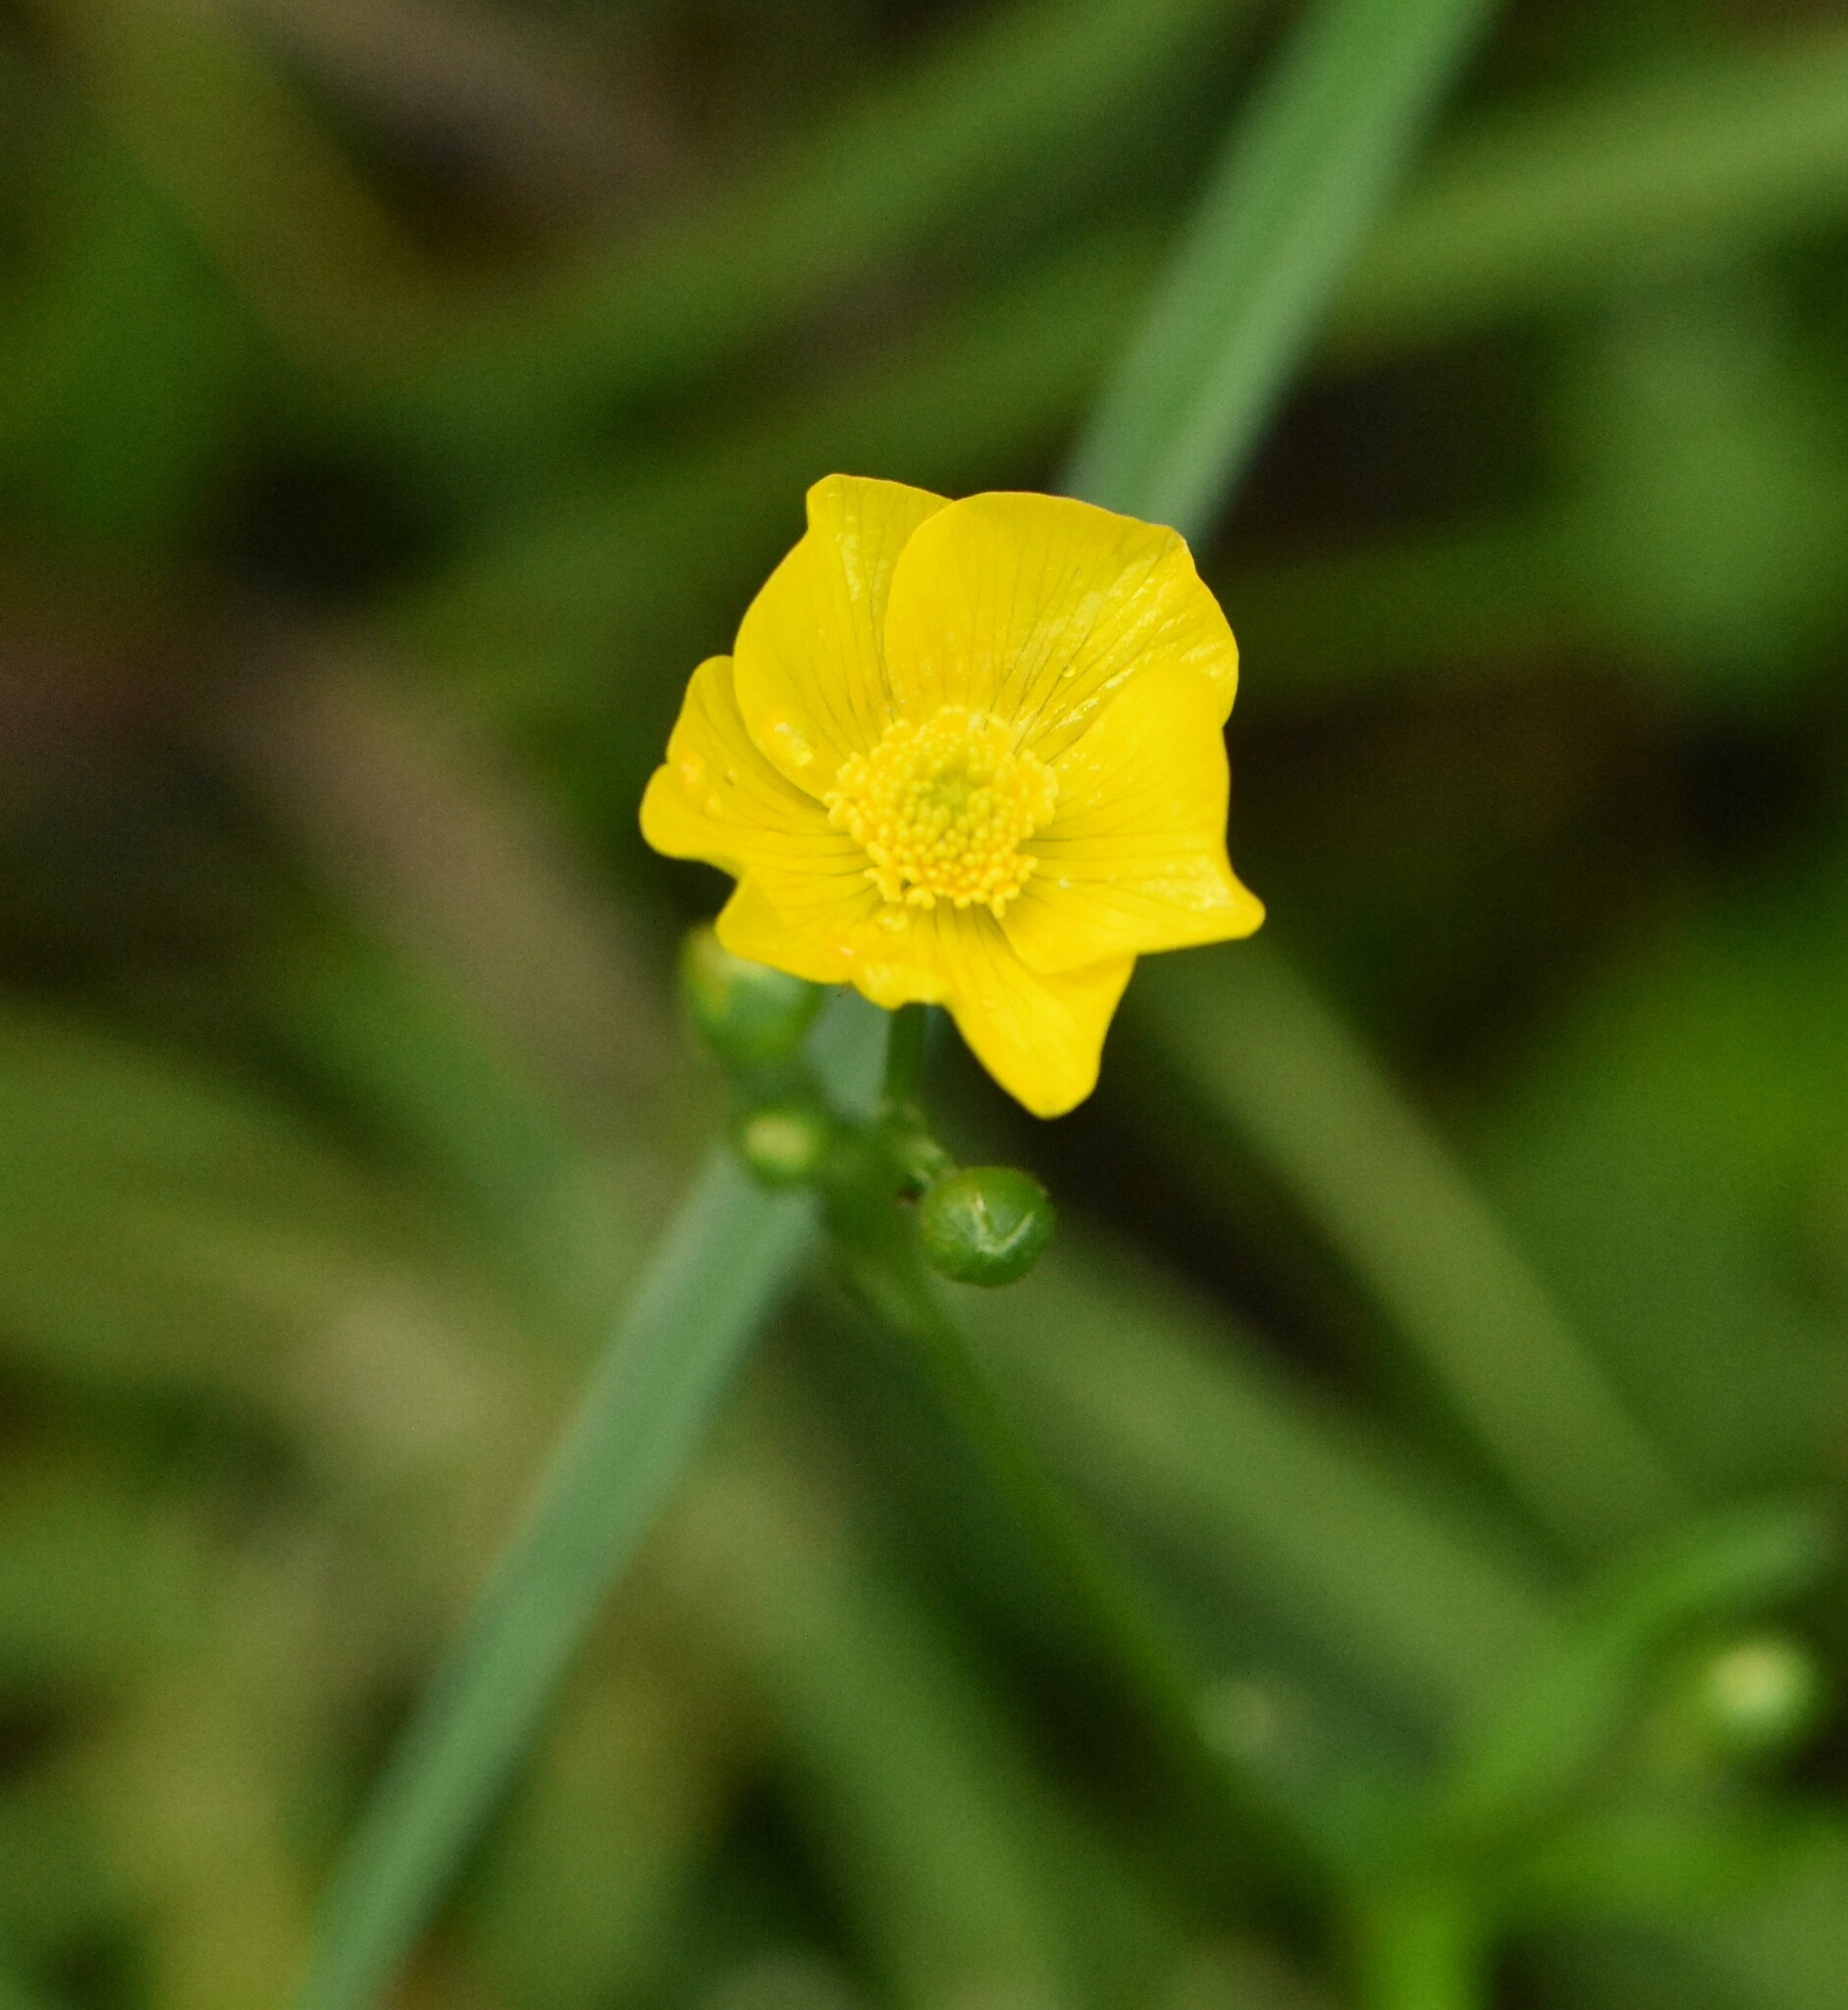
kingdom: Plantae
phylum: Tracheophyta
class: Magnoliopsida
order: Ranunculales
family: Ranunculaceae
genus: Ranunculus
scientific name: Ranunculus acris
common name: Meadow buttercup
